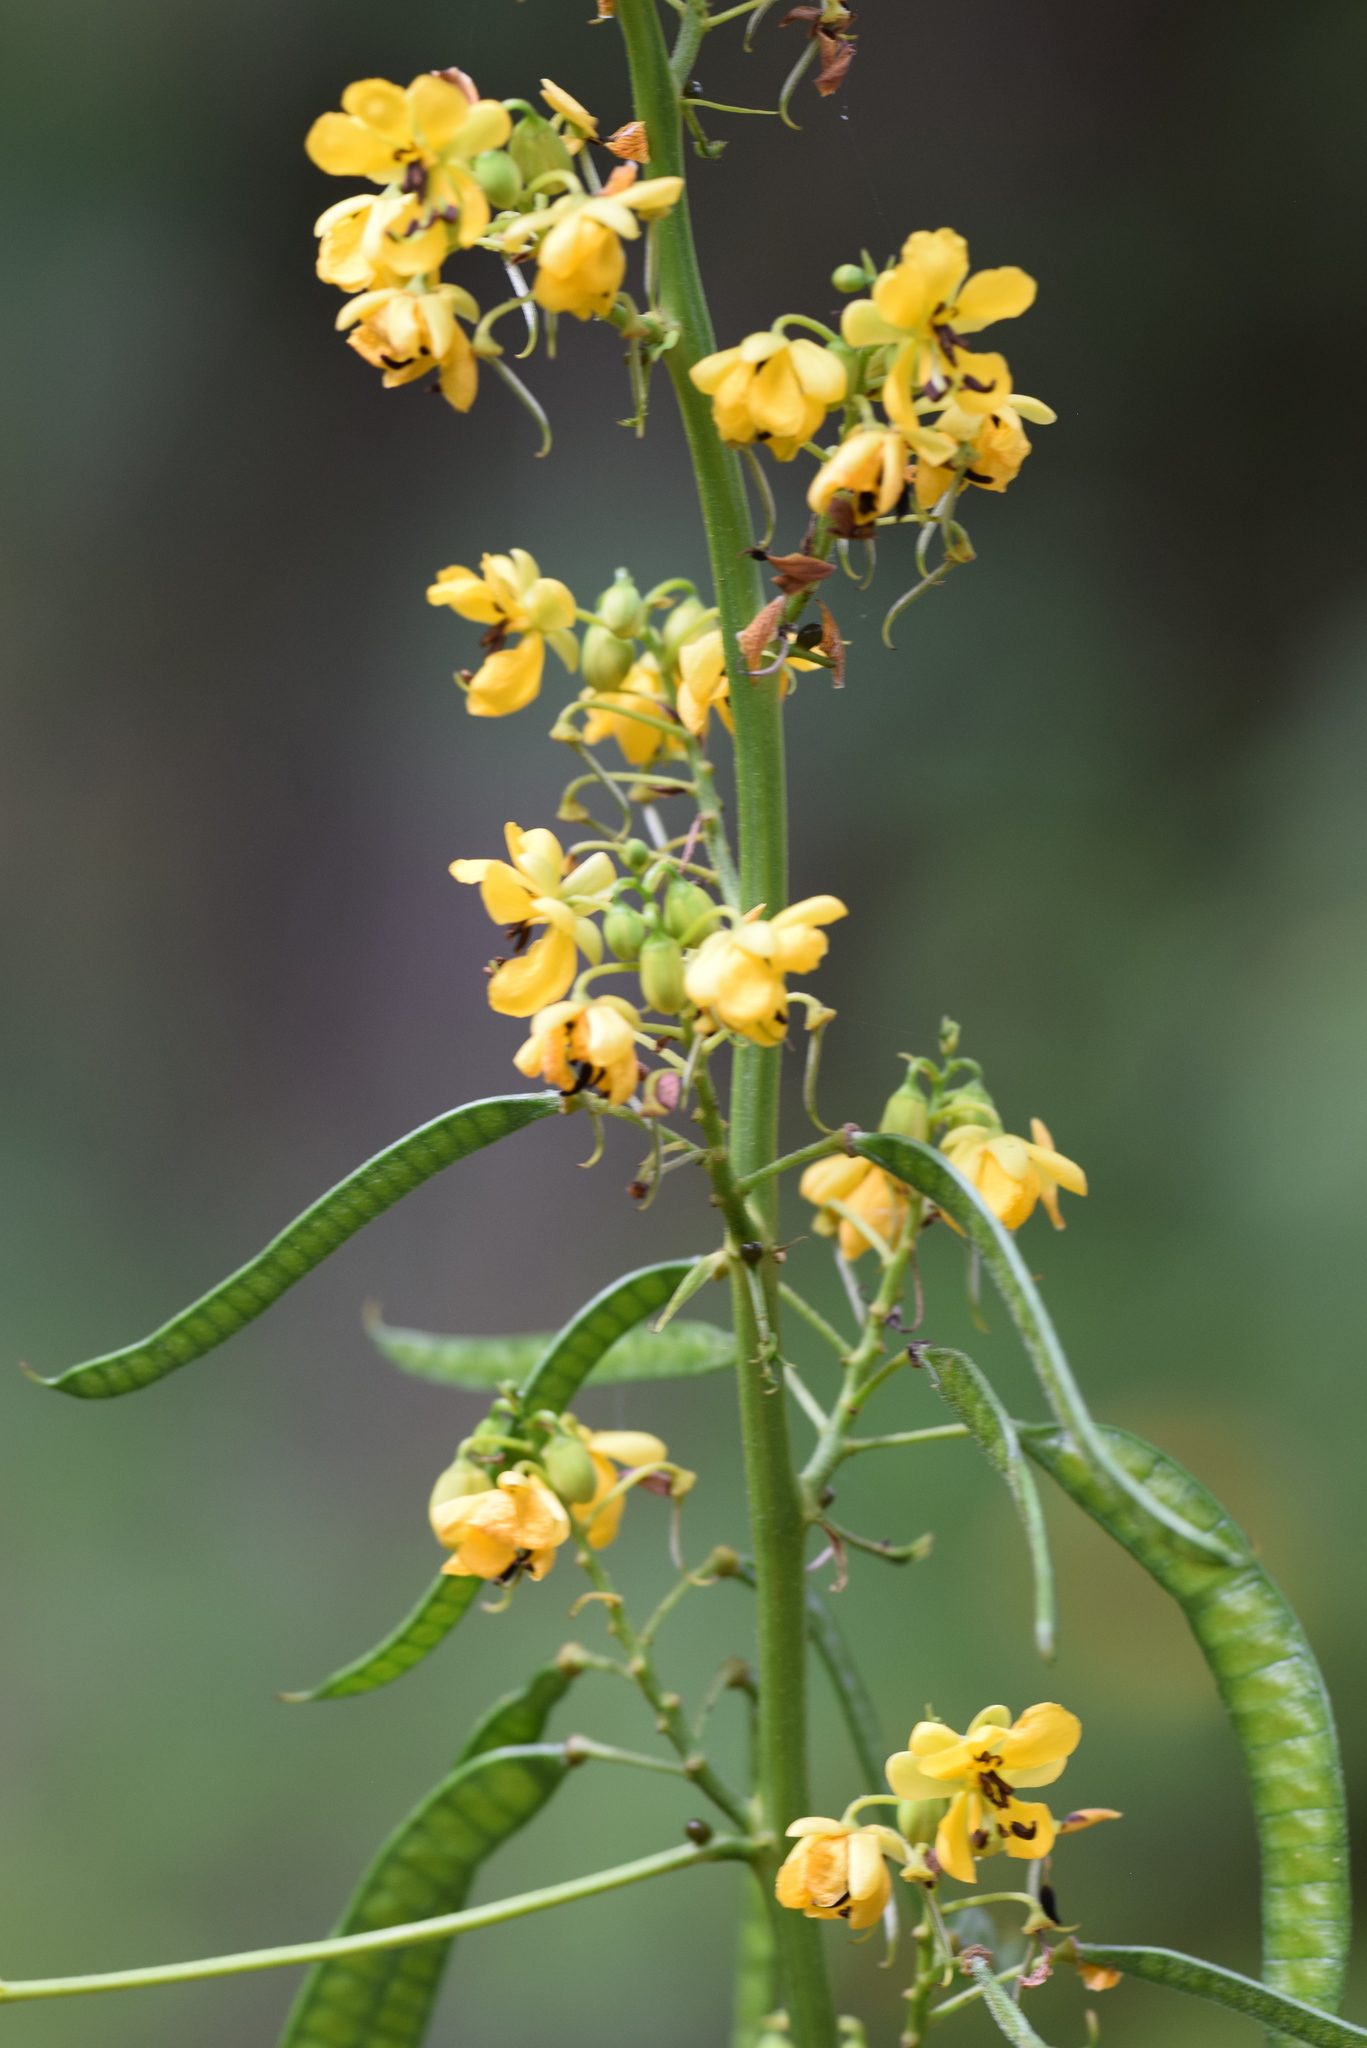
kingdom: Plantae
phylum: Tracheophyta
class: Magnoliopsida
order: Fabales
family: Fabaceae
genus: Senna
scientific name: Senna marilandica
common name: American senna
